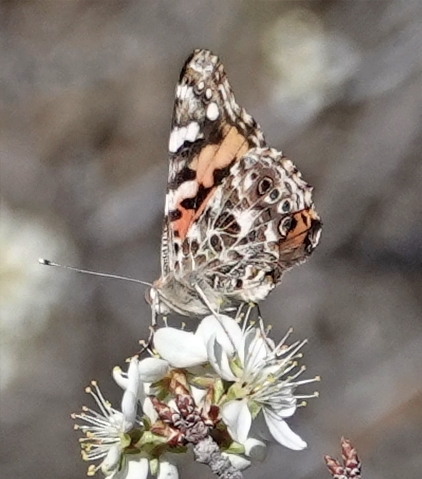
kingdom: Animalia
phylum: Arthropoda
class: Insecta
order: Lepidoptera
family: Nymphalidae
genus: Vanessa
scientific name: Vanessa cardui
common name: Painted lady
